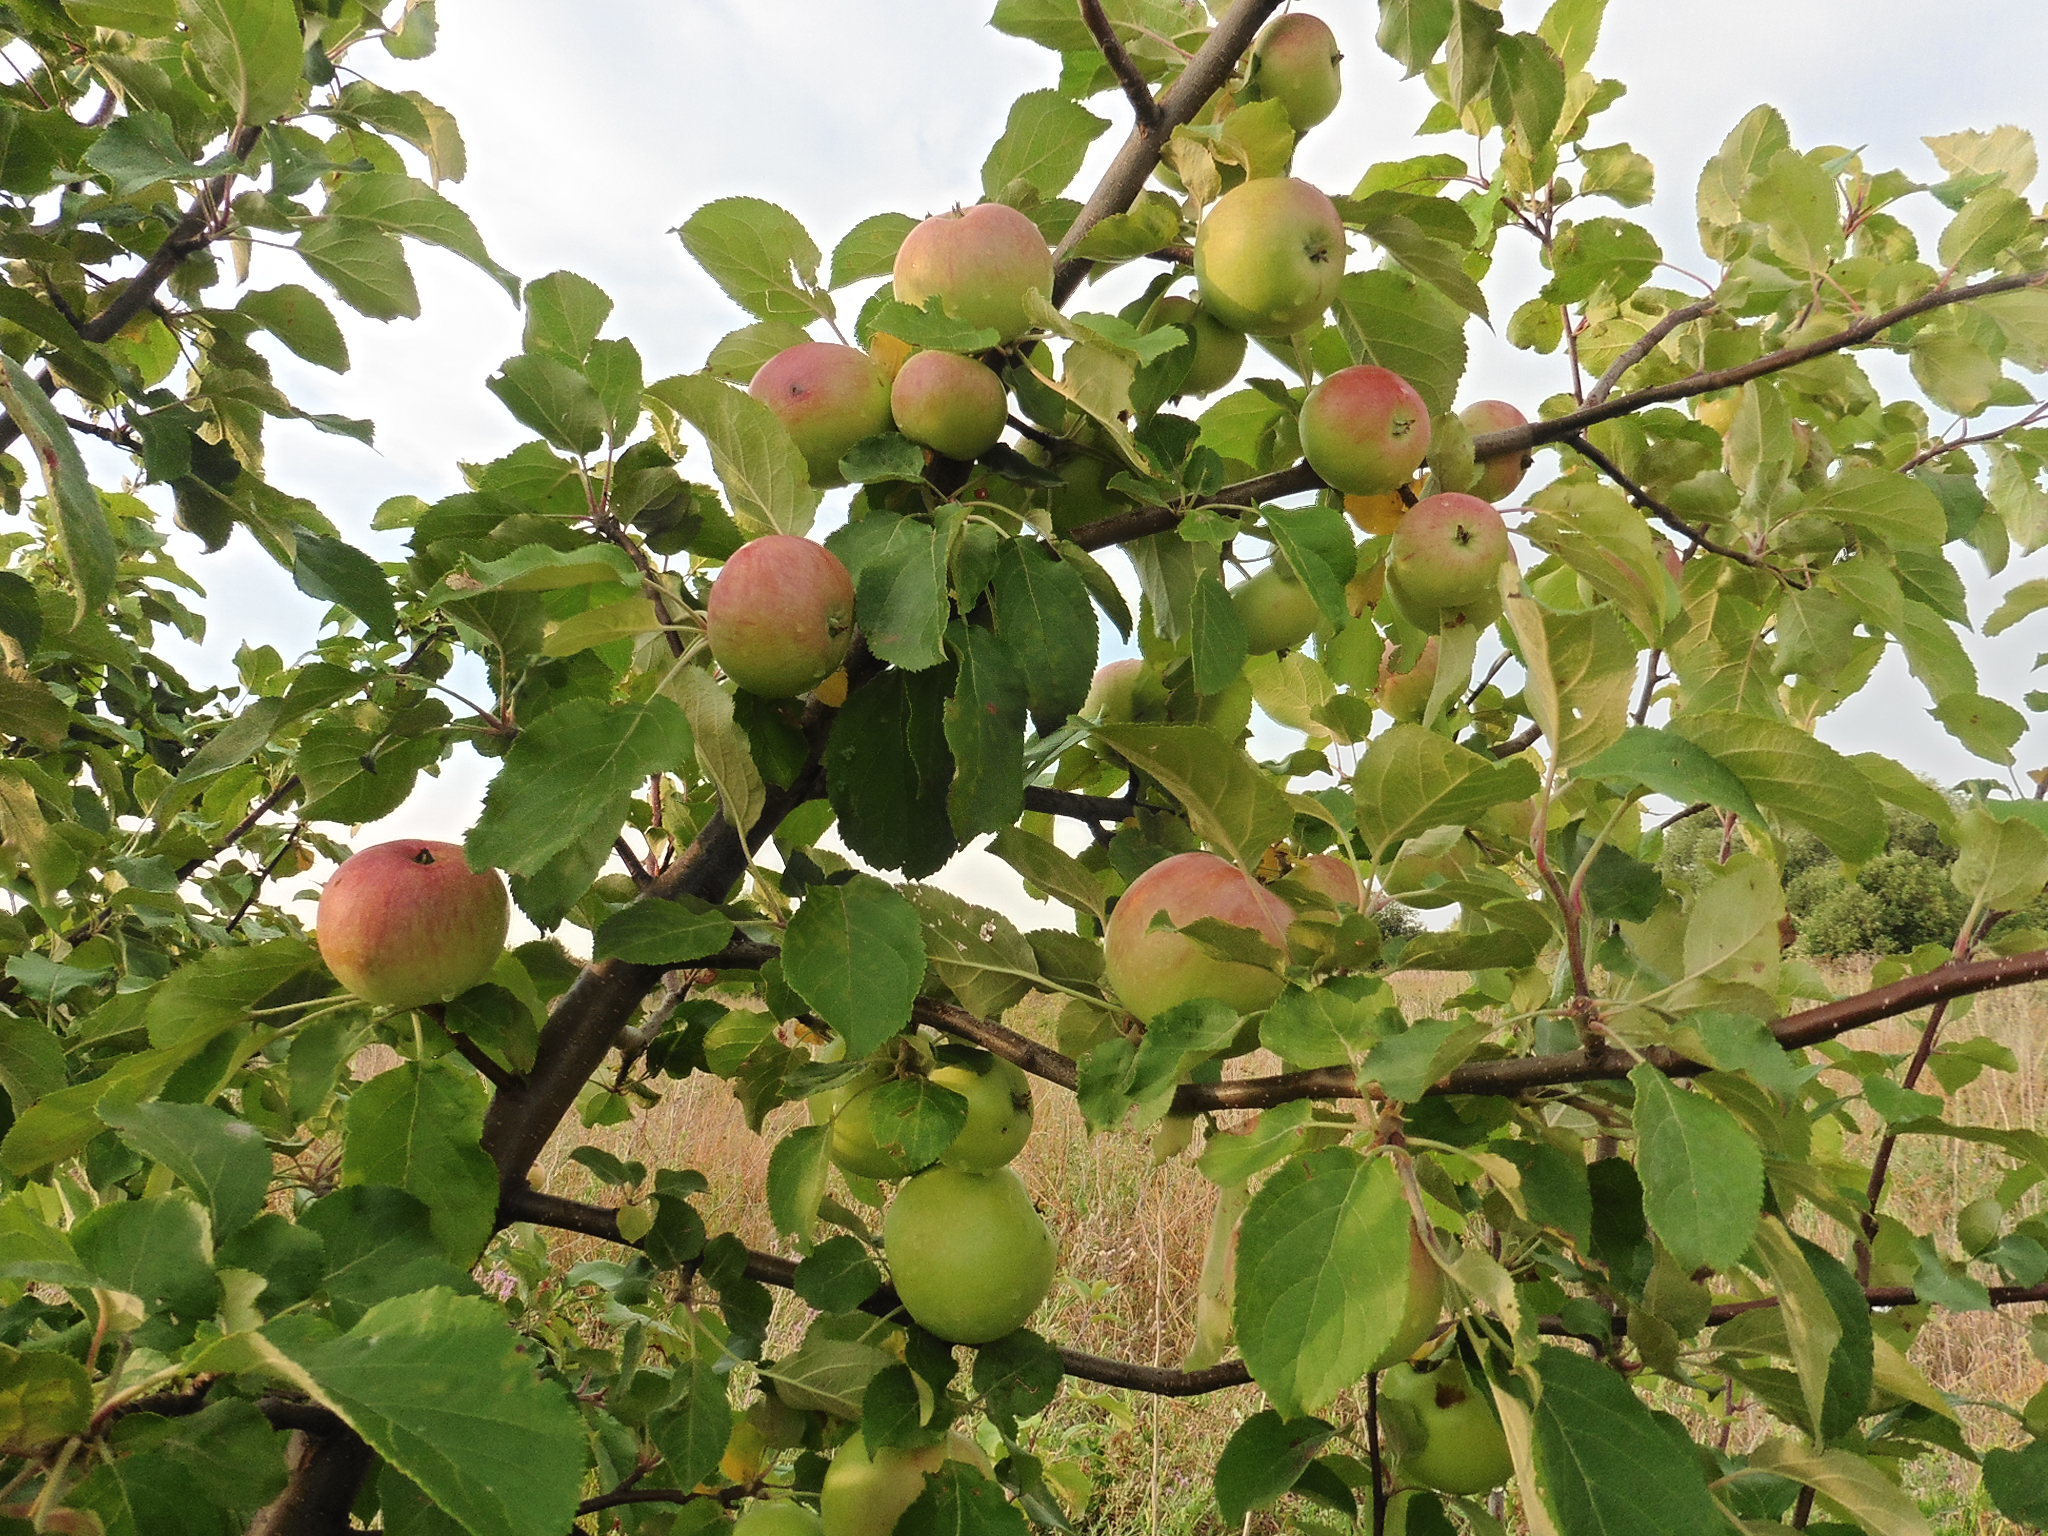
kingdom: Plantae
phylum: Tracheophyta
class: Magnoliopsida
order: Rosales
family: Rosaceae
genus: Malus
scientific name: Malus domestica
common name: Apple
